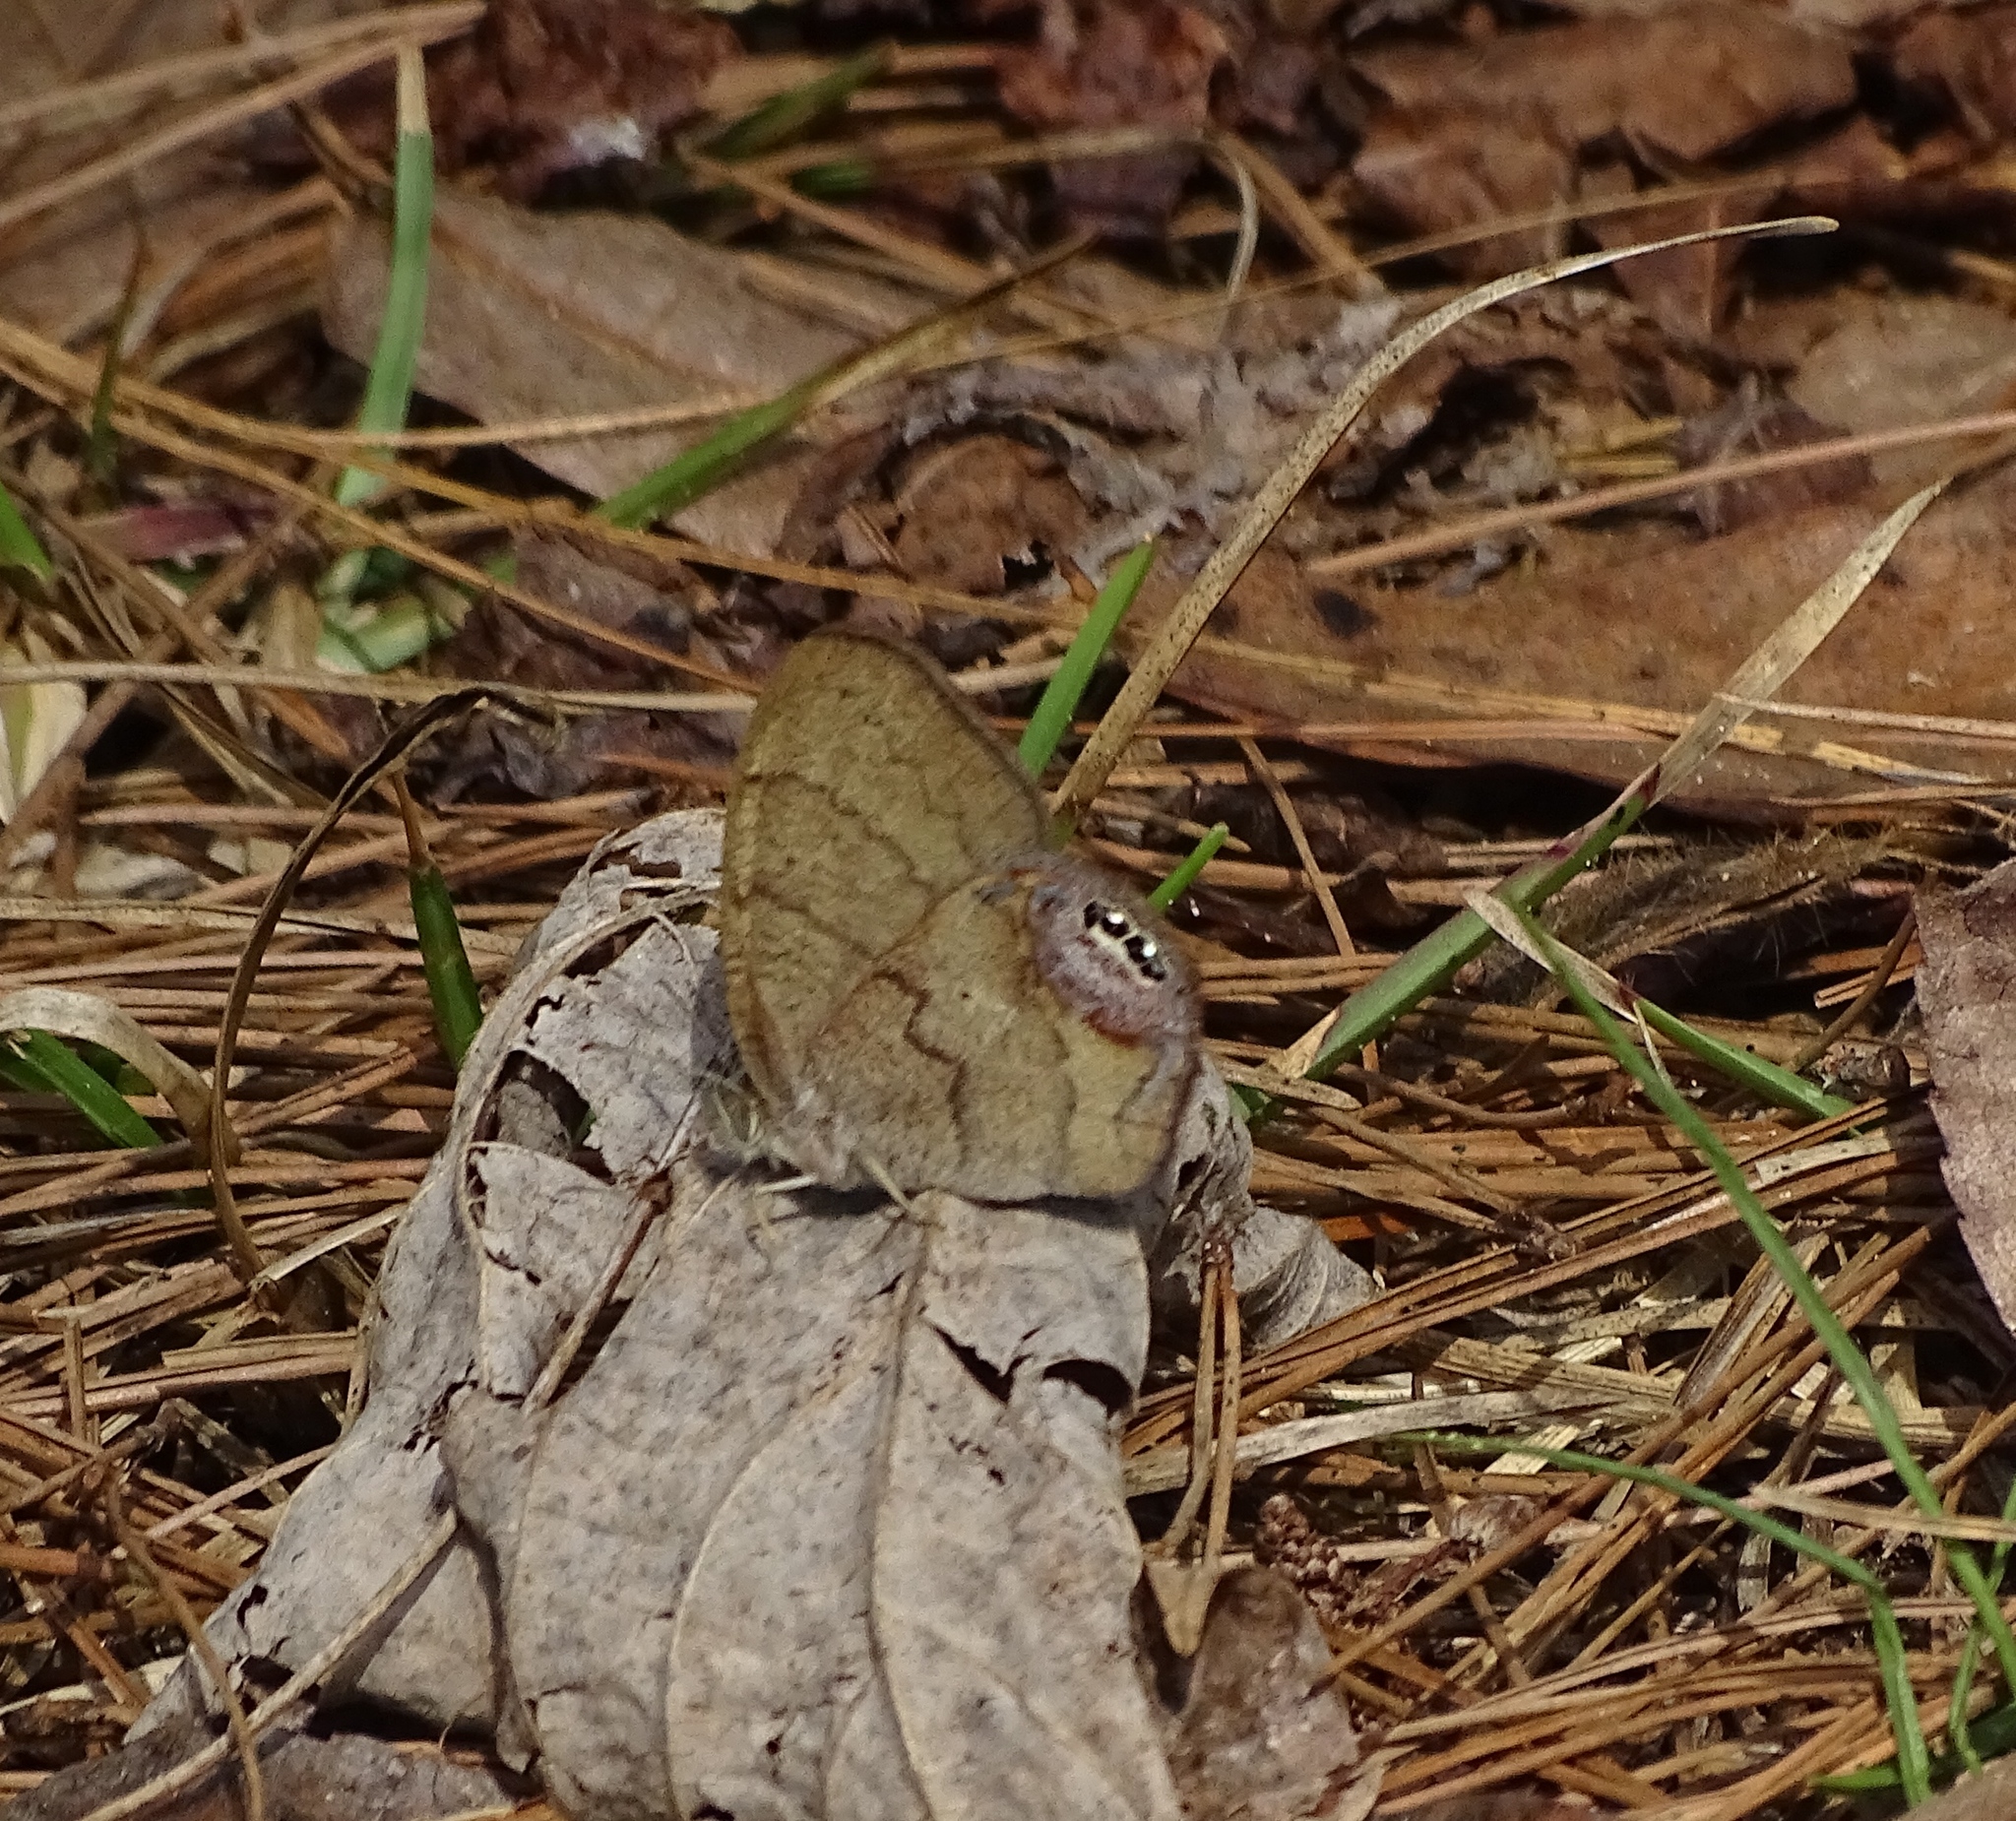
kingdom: Animalia
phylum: Arthropoda
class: Insecta
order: Lepidoptera
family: Nymphalidae
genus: Euptychia
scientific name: Euptychia cornelius
